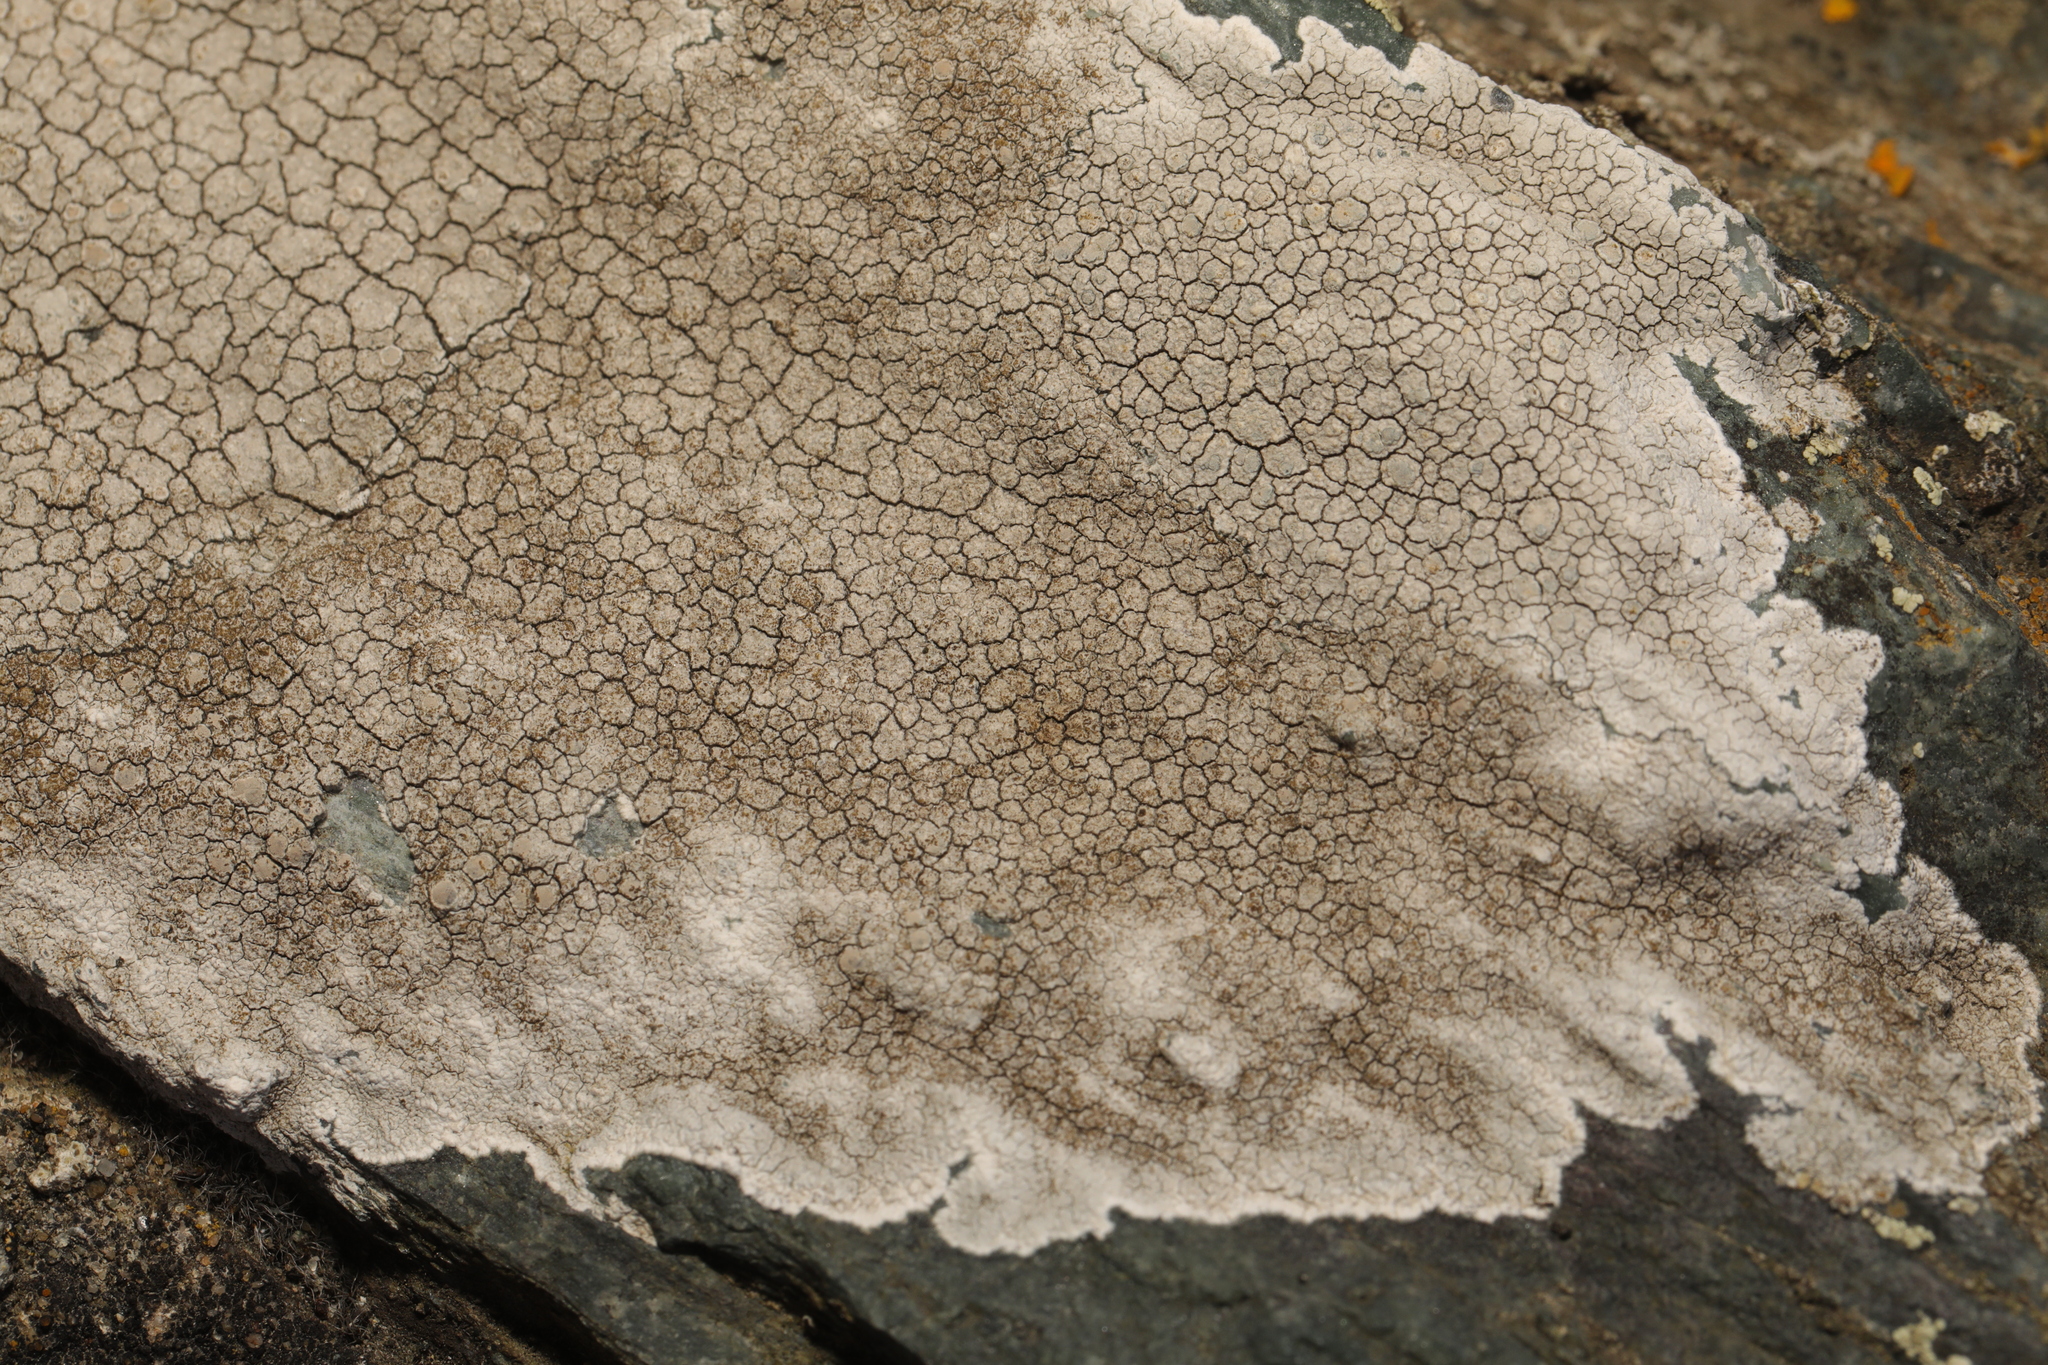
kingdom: Fungi
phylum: Ascomycota
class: Lecanoromycetes
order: Lecanorales
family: Lecanoraceae
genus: Glaucomaria
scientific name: Glaucomaria rupicola
